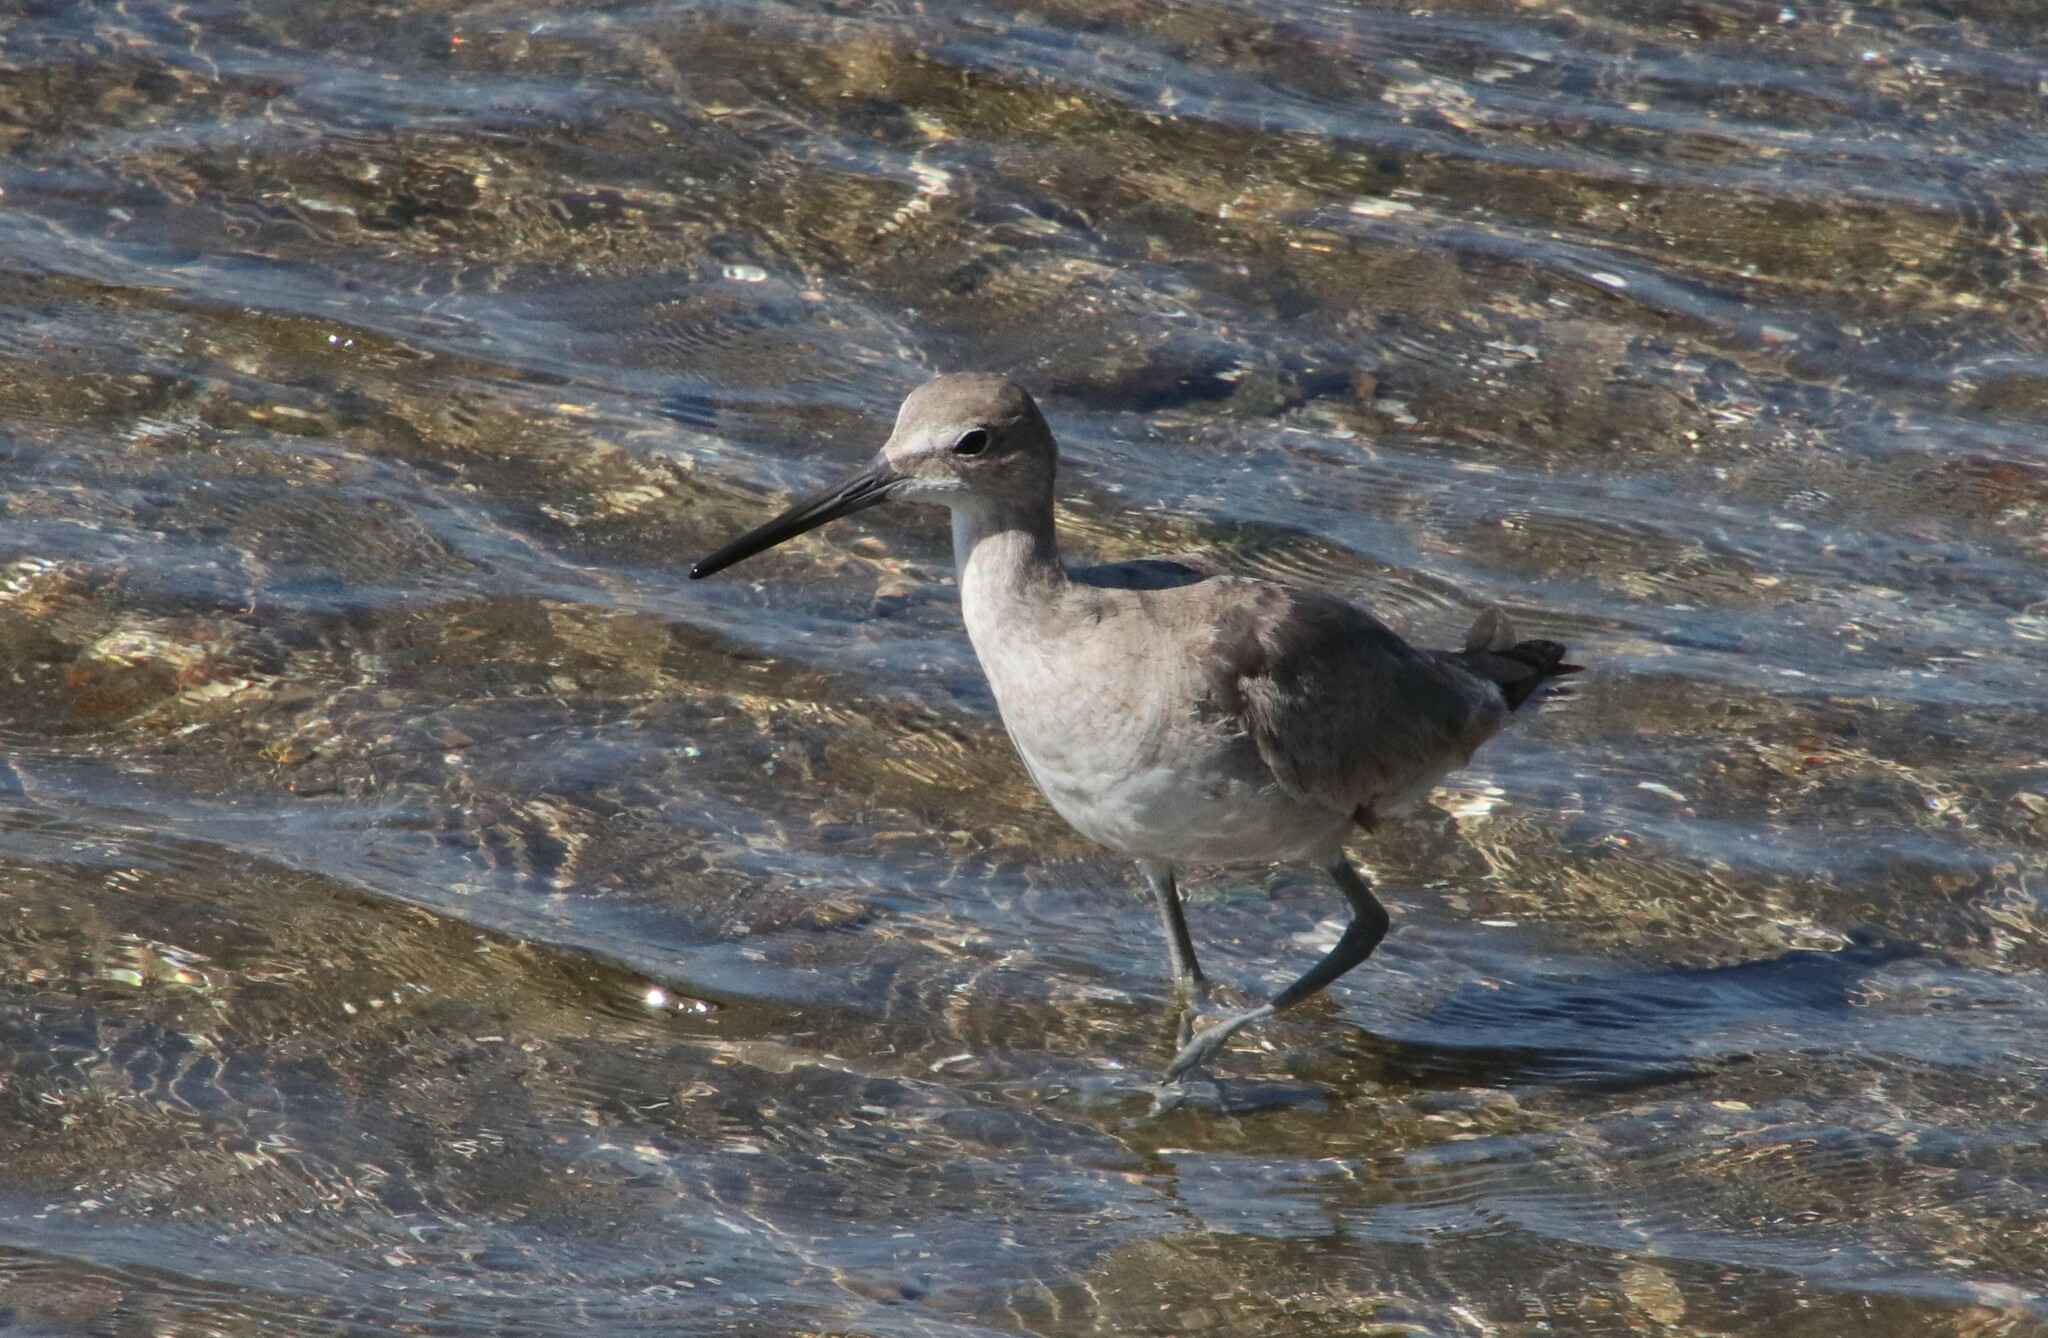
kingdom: Animalia
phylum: Chordata
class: Aves
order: Charadriiformes
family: Scolopacidae
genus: Tringa
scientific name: Tringa semipalmata
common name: Willet
